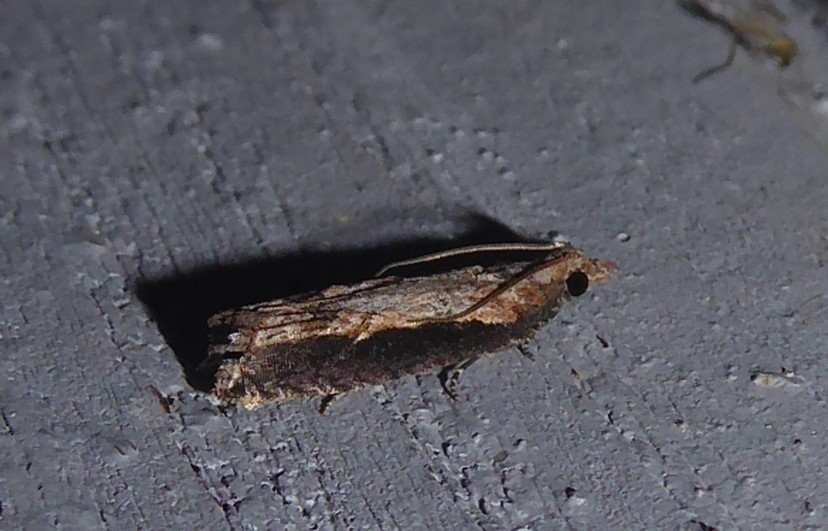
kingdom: Animalia
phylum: Arthropoda
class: Insecta
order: Lepidoptera
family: Tortricidae
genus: Strepsicrates
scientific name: Strepsicrates infensa
